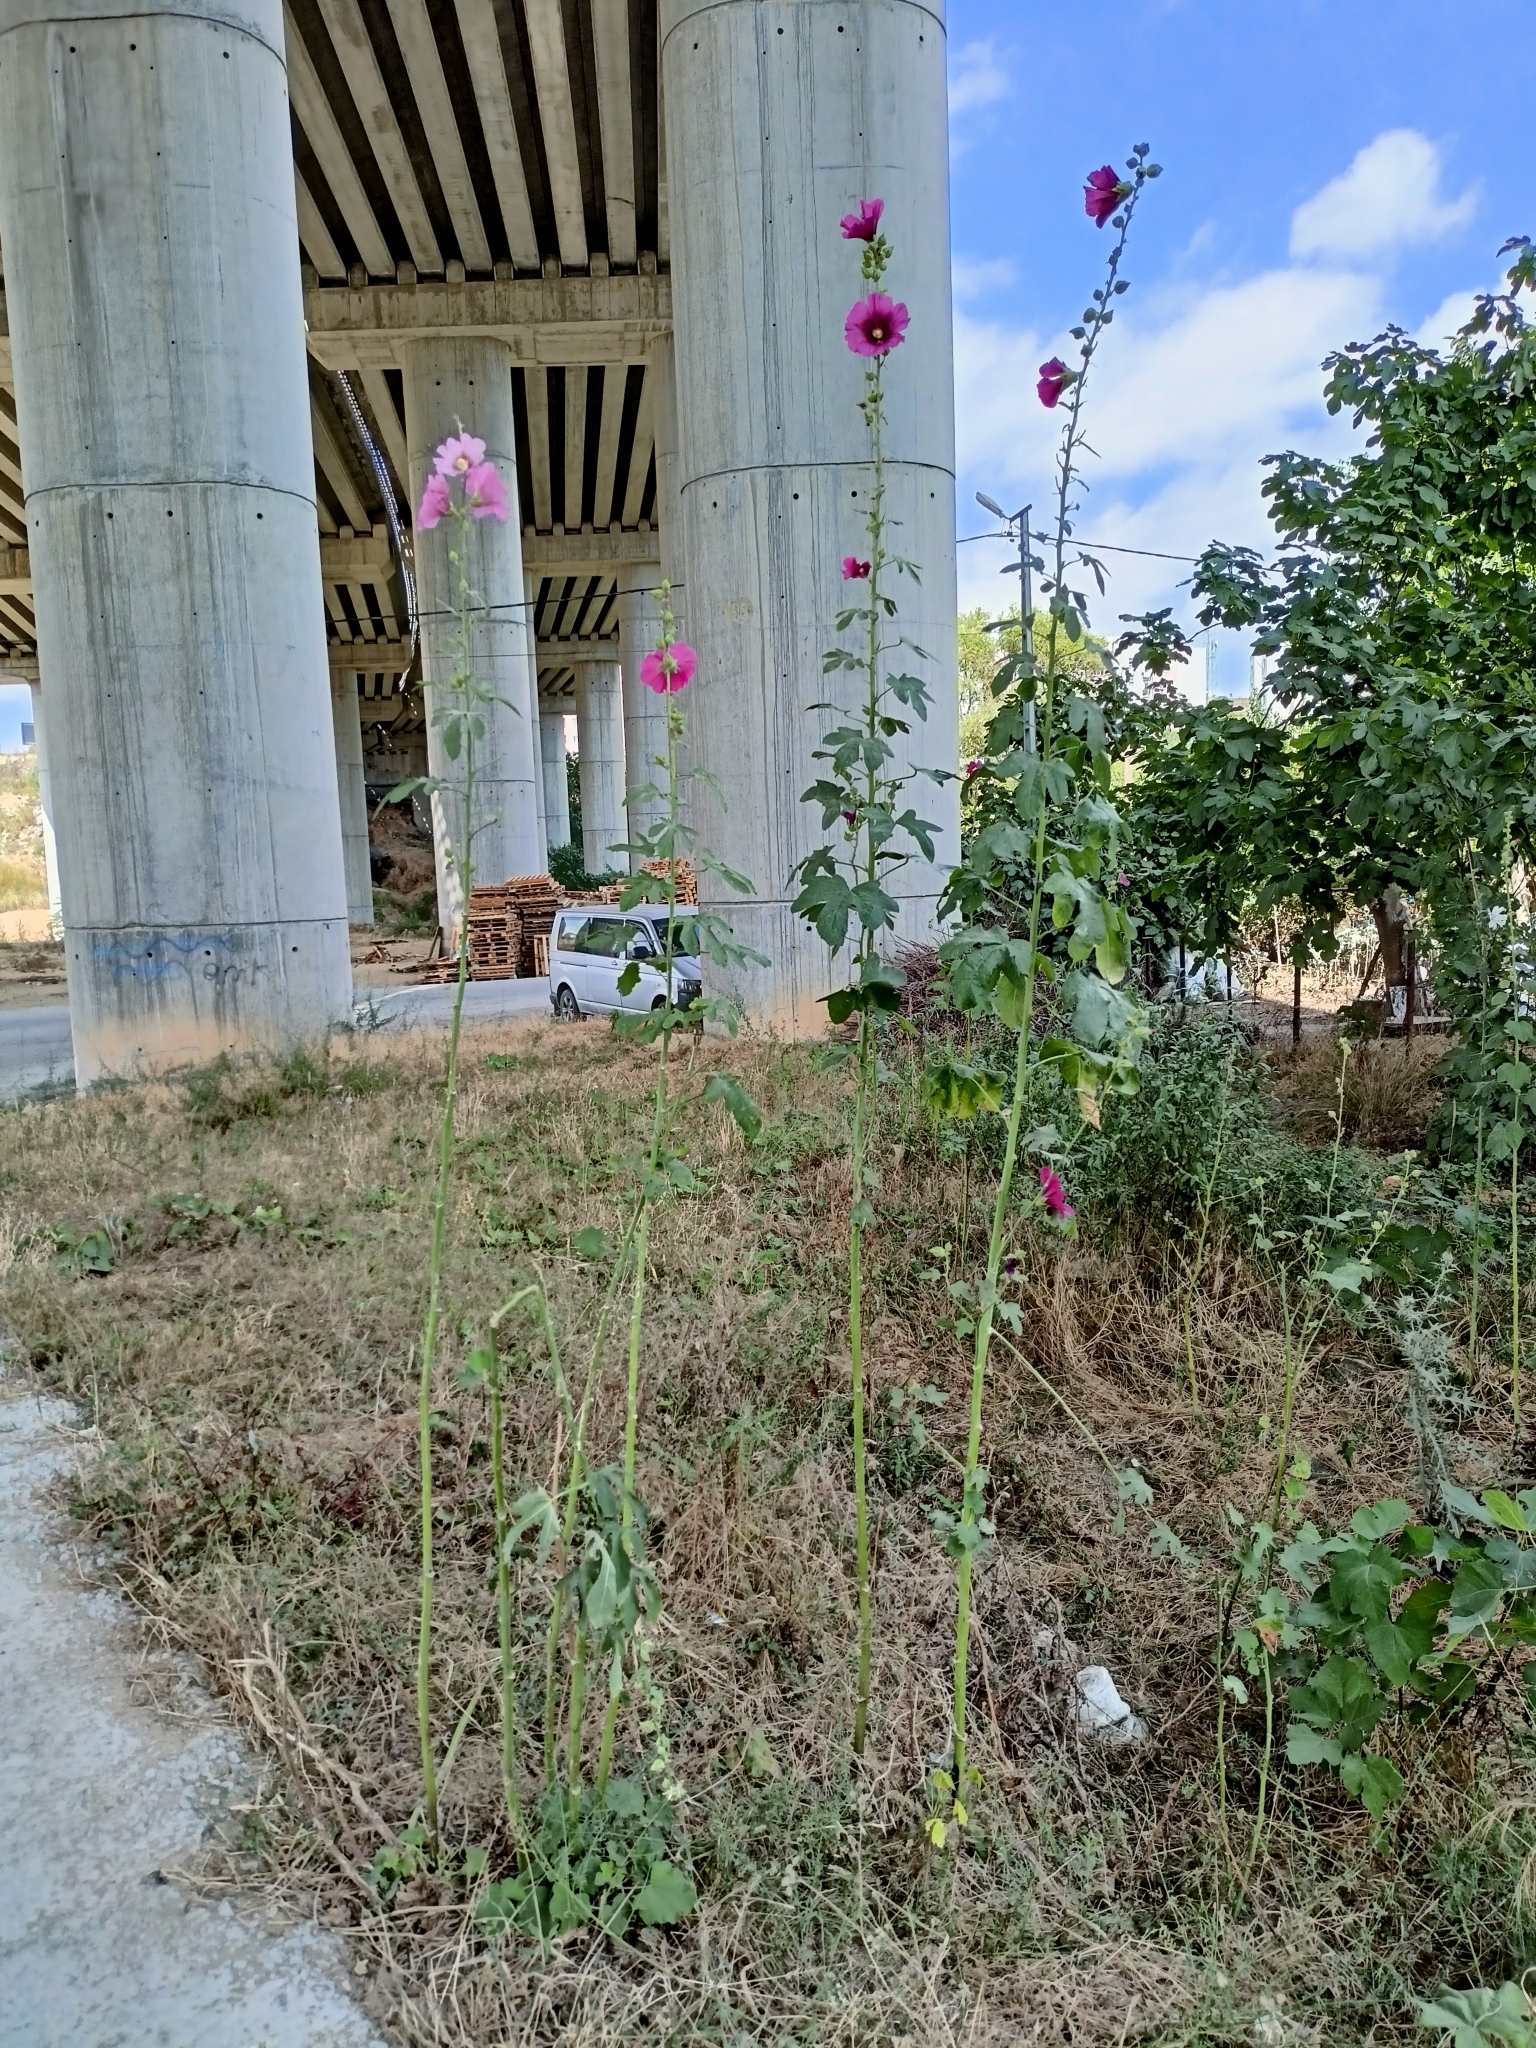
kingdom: Plantae
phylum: Tracheophyta
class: Magnoliopsida
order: Malvales
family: Malvaceae
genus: Alcea
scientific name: Alcea rosea
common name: Hollyhock
